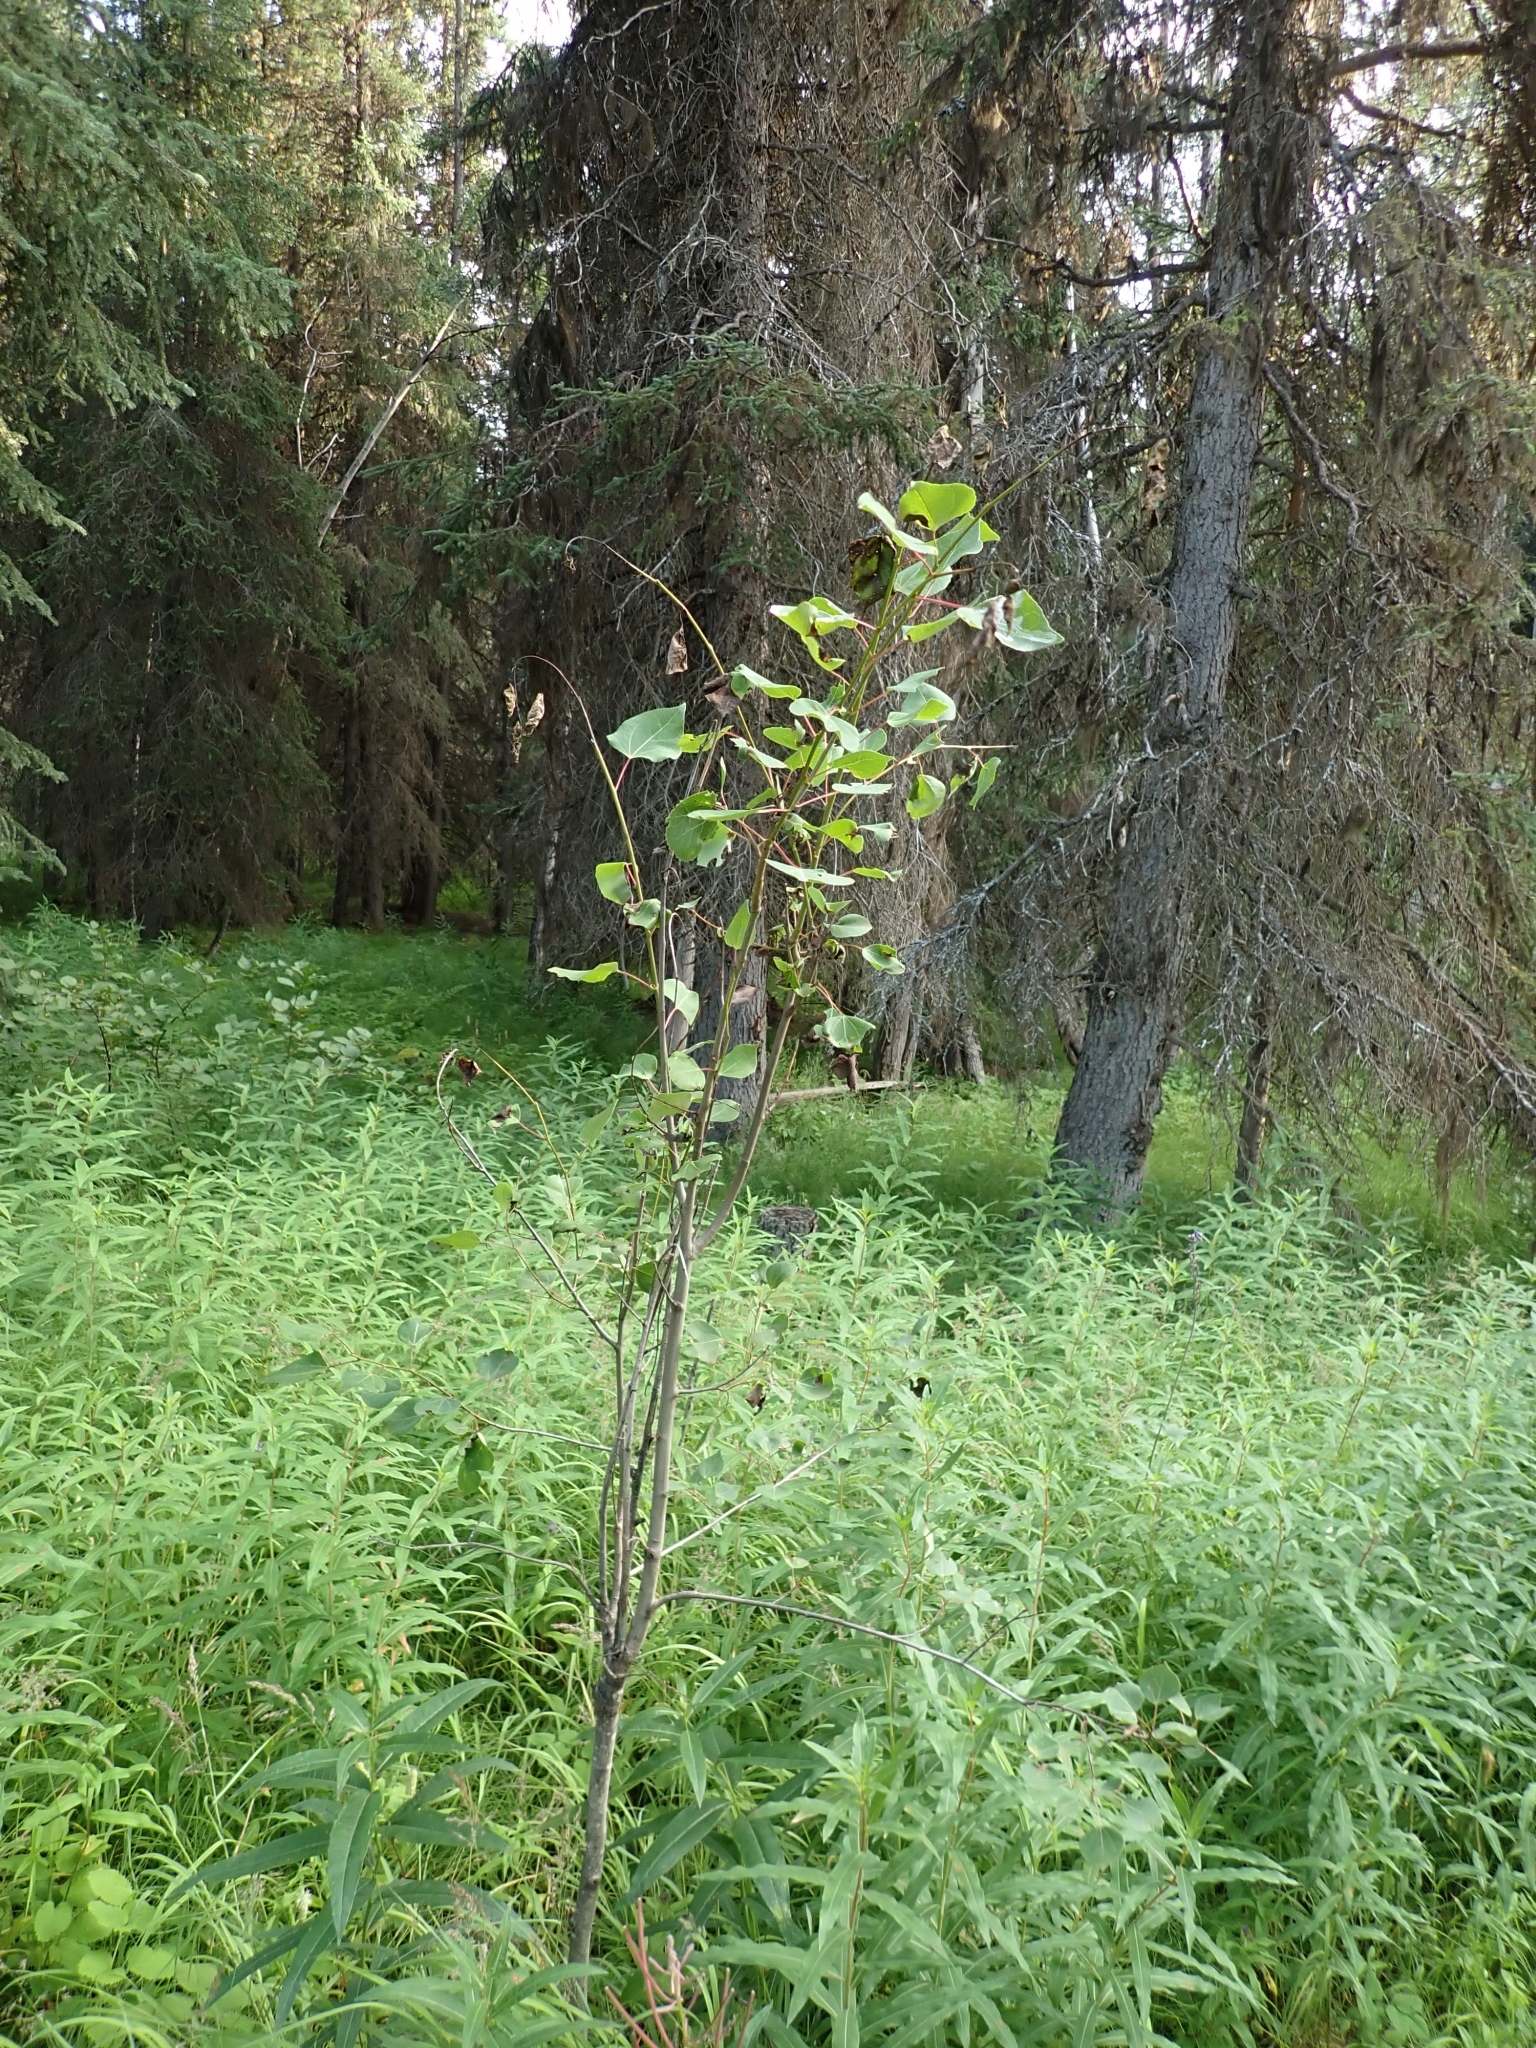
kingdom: Plantae
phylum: Tracheophyta
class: Magnoliopsida
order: Malpighiales
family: Salicaceae
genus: Populus
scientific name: Populus tremuloides
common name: Quaking aspen
